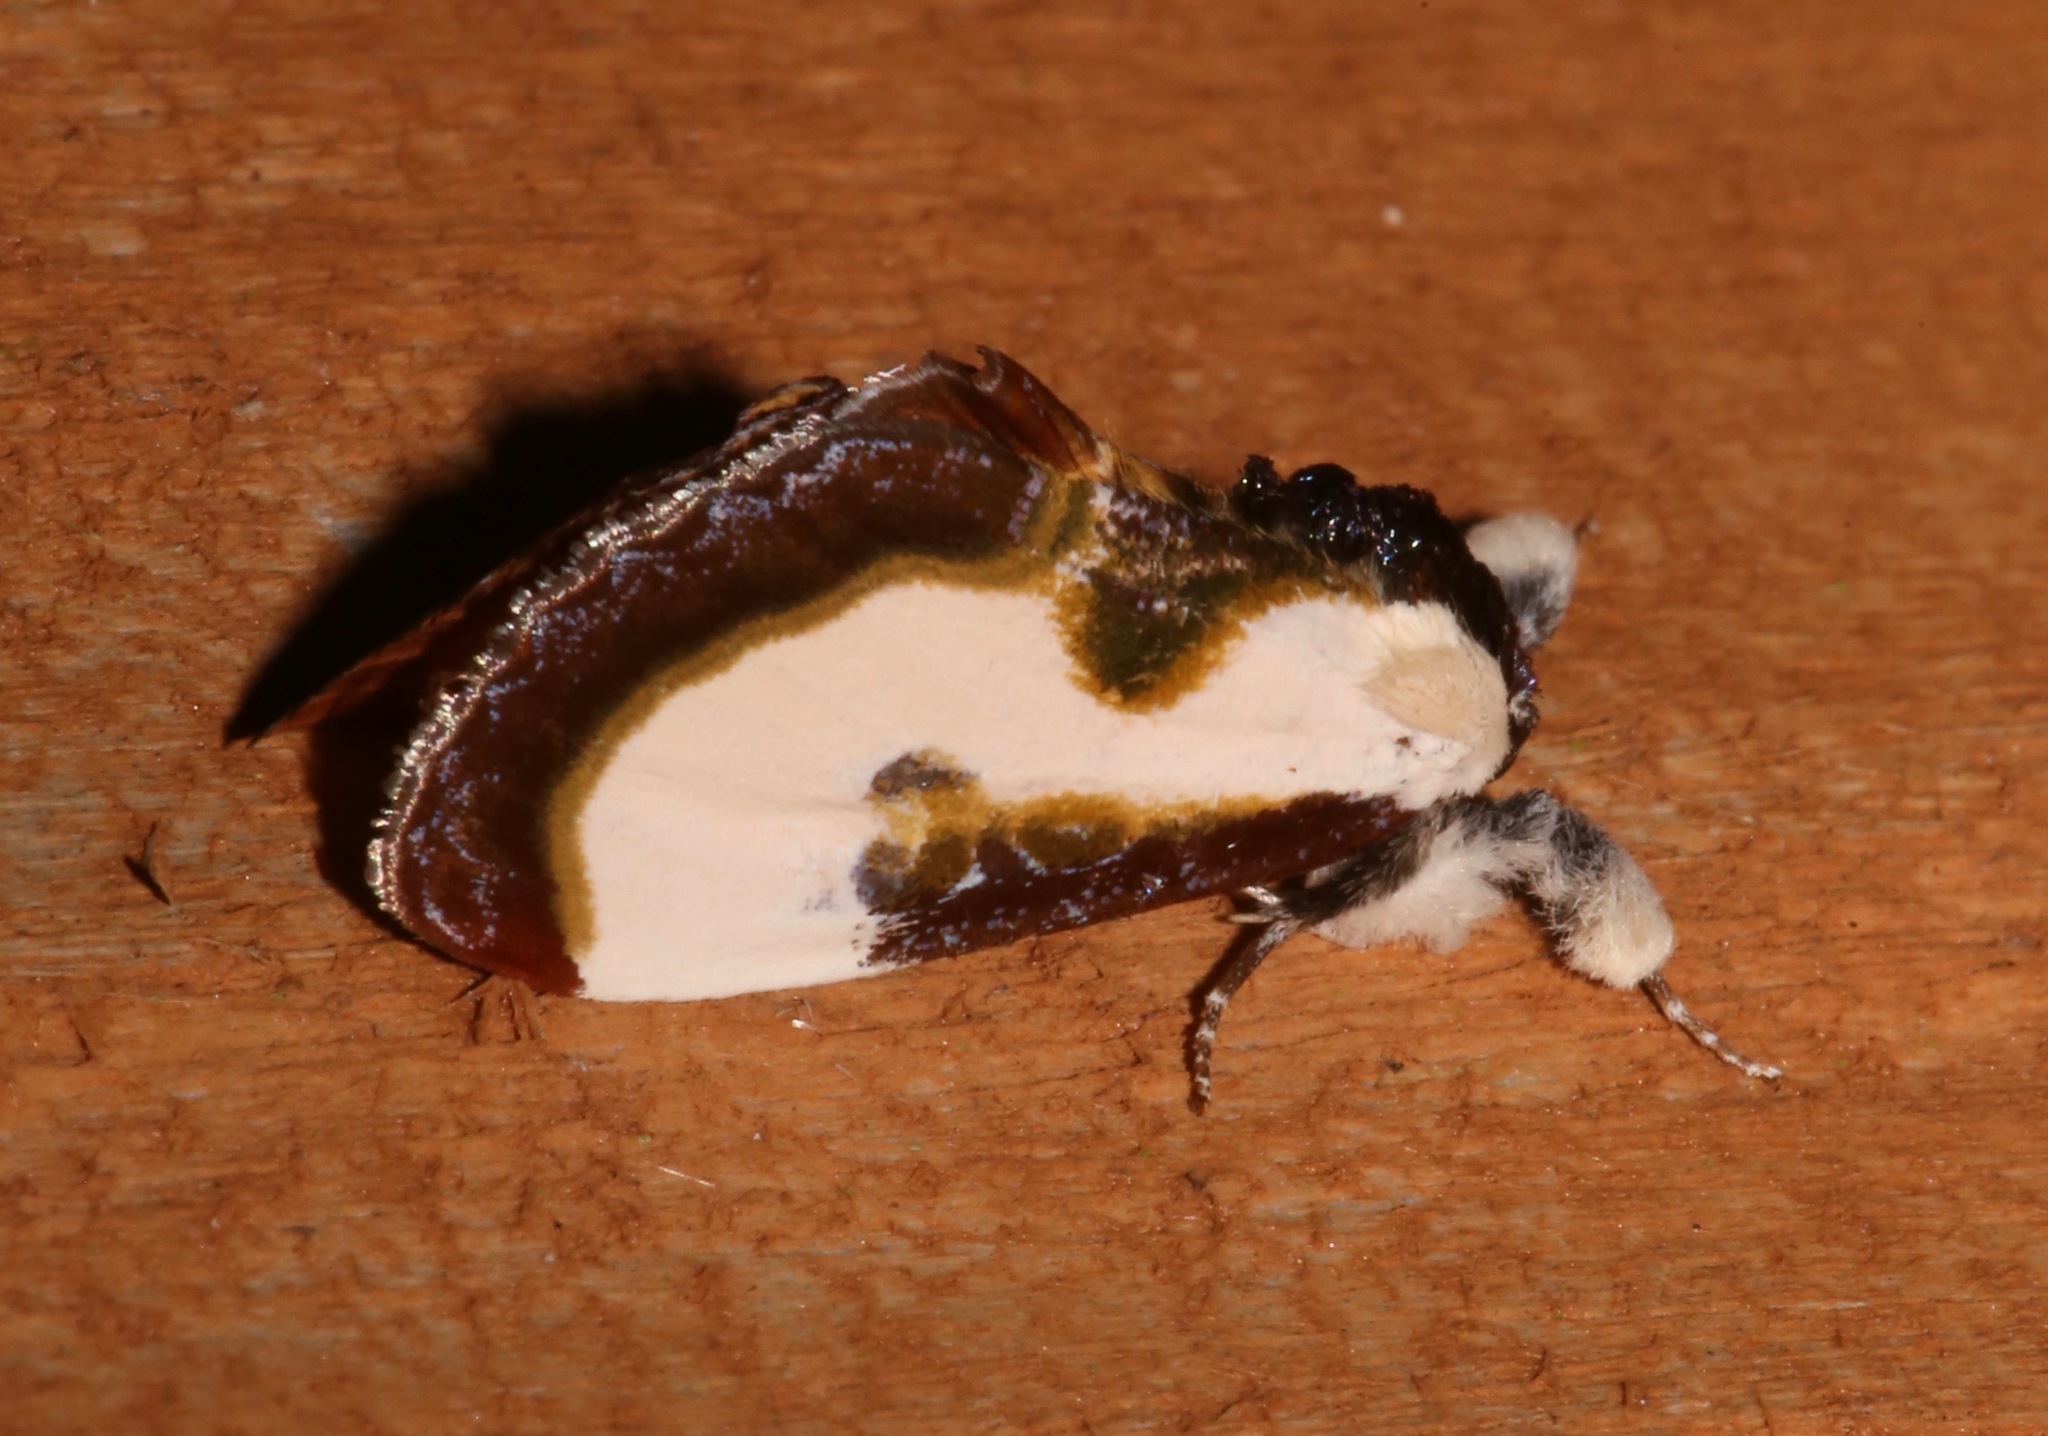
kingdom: Animalia
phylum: Arthropoda
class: Insecta
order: Lepidoptera
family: Noctuidae
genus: Eudryas
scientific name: Eudryas grata
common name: Beautiful wood-nymph
